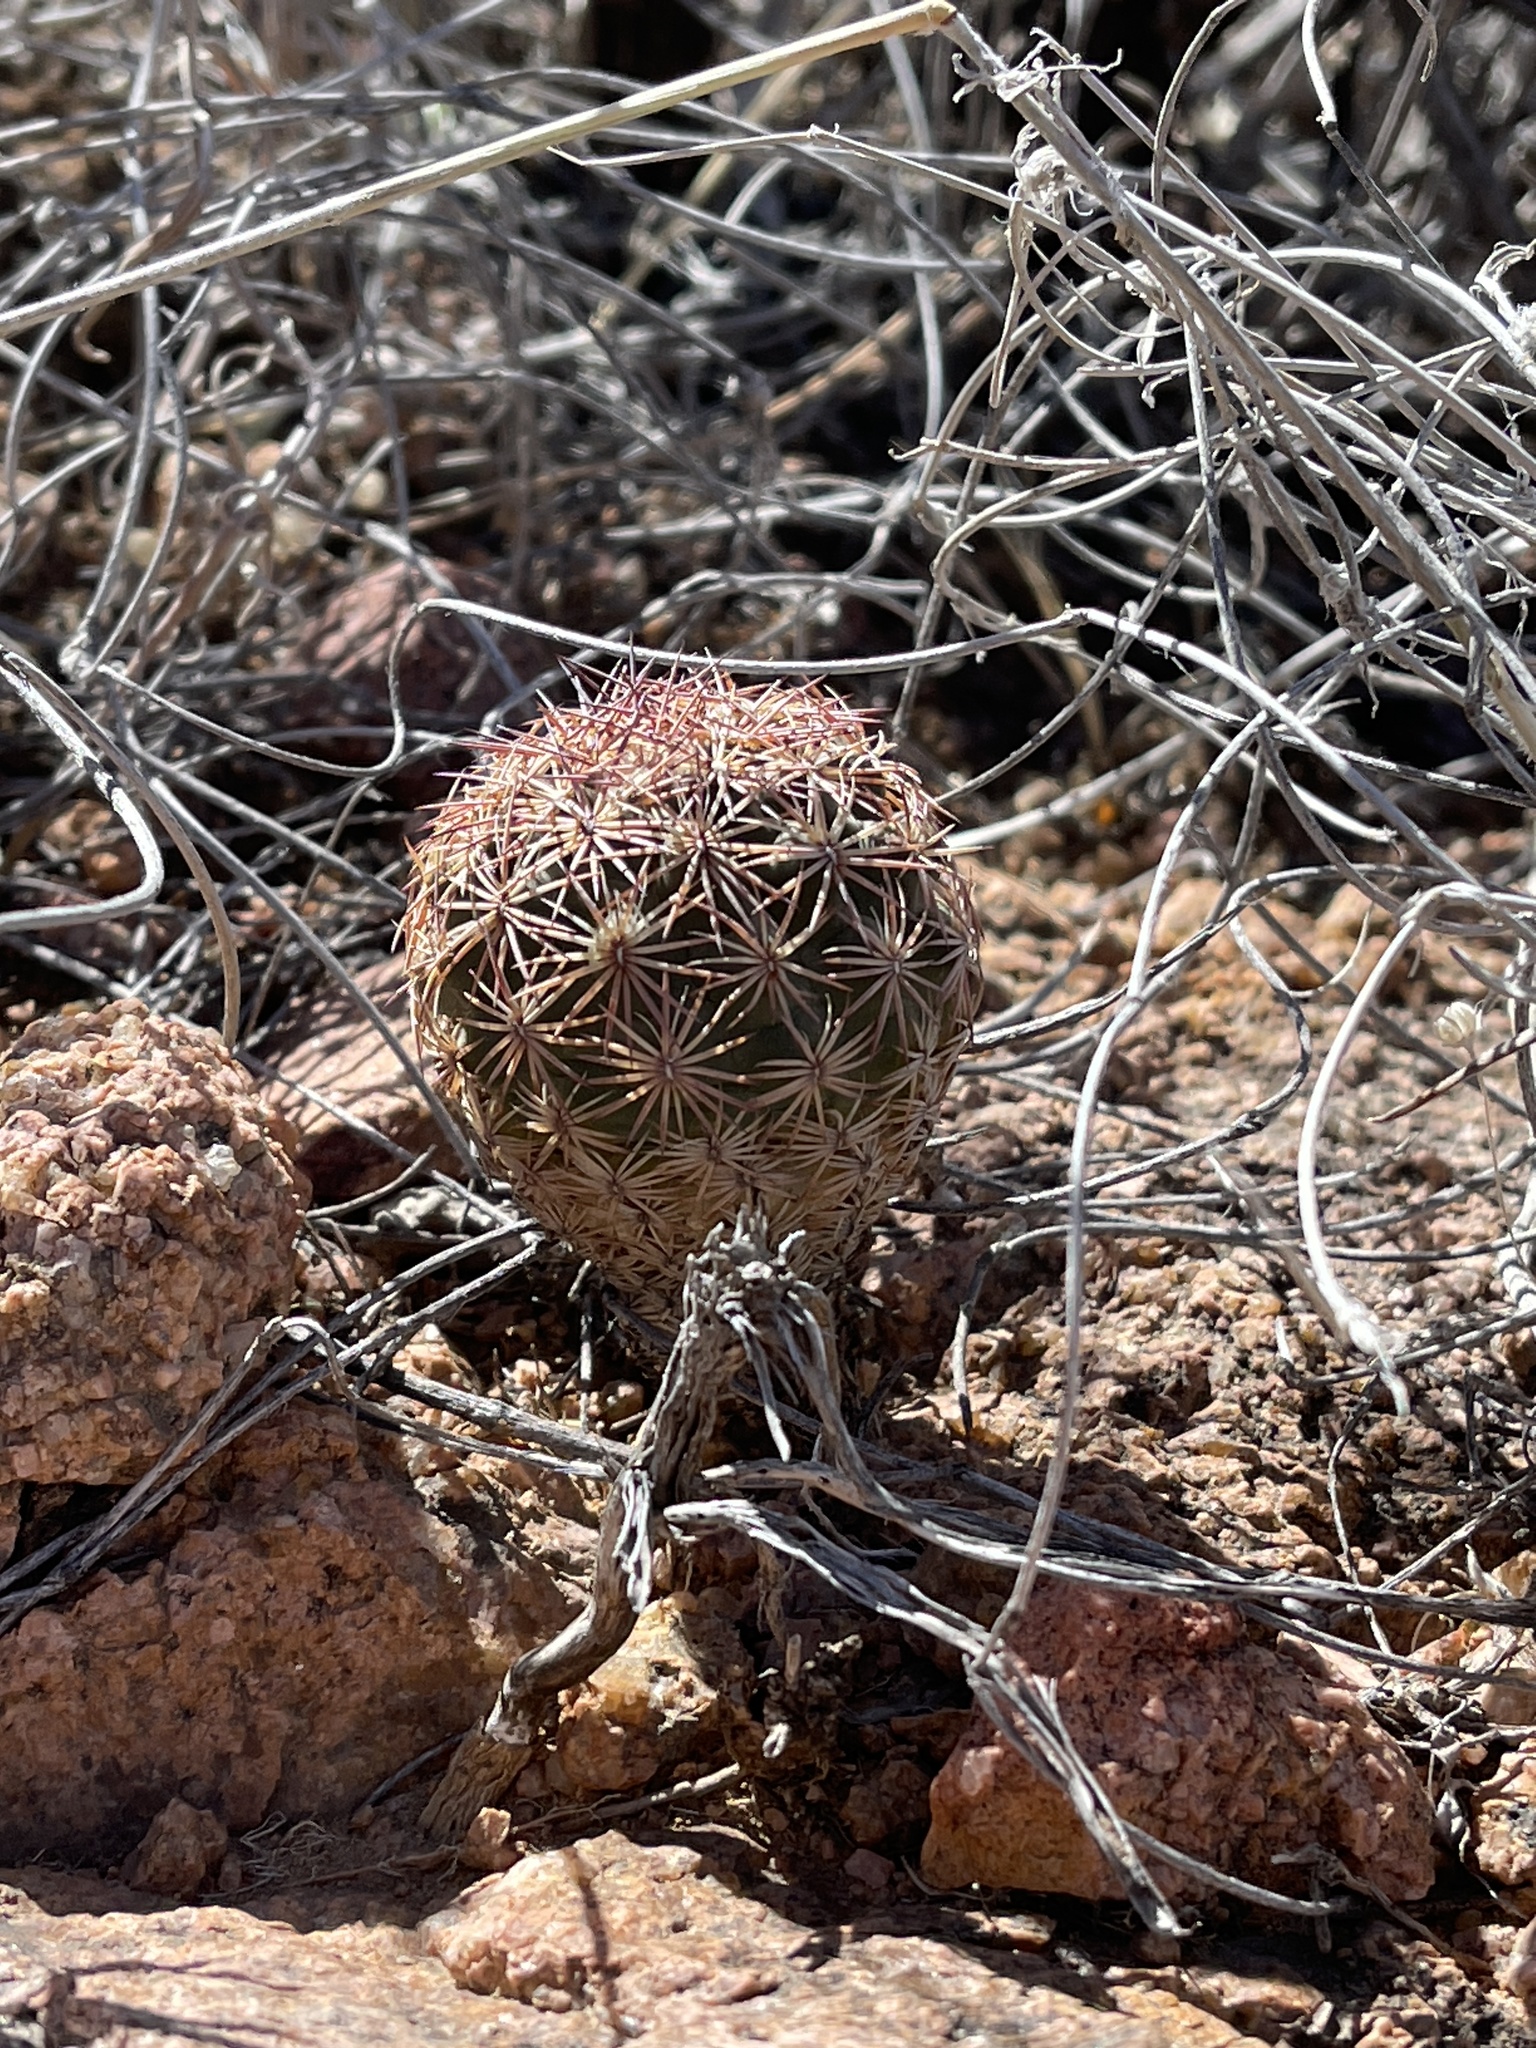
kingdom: Plantae
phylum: Tracheophyta
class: Magnoliopsida
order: Caryophyllales
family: Cactaceae
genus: Sclerocactus
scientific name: Sclerocactus intertextus
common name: White fish-hook cactus
